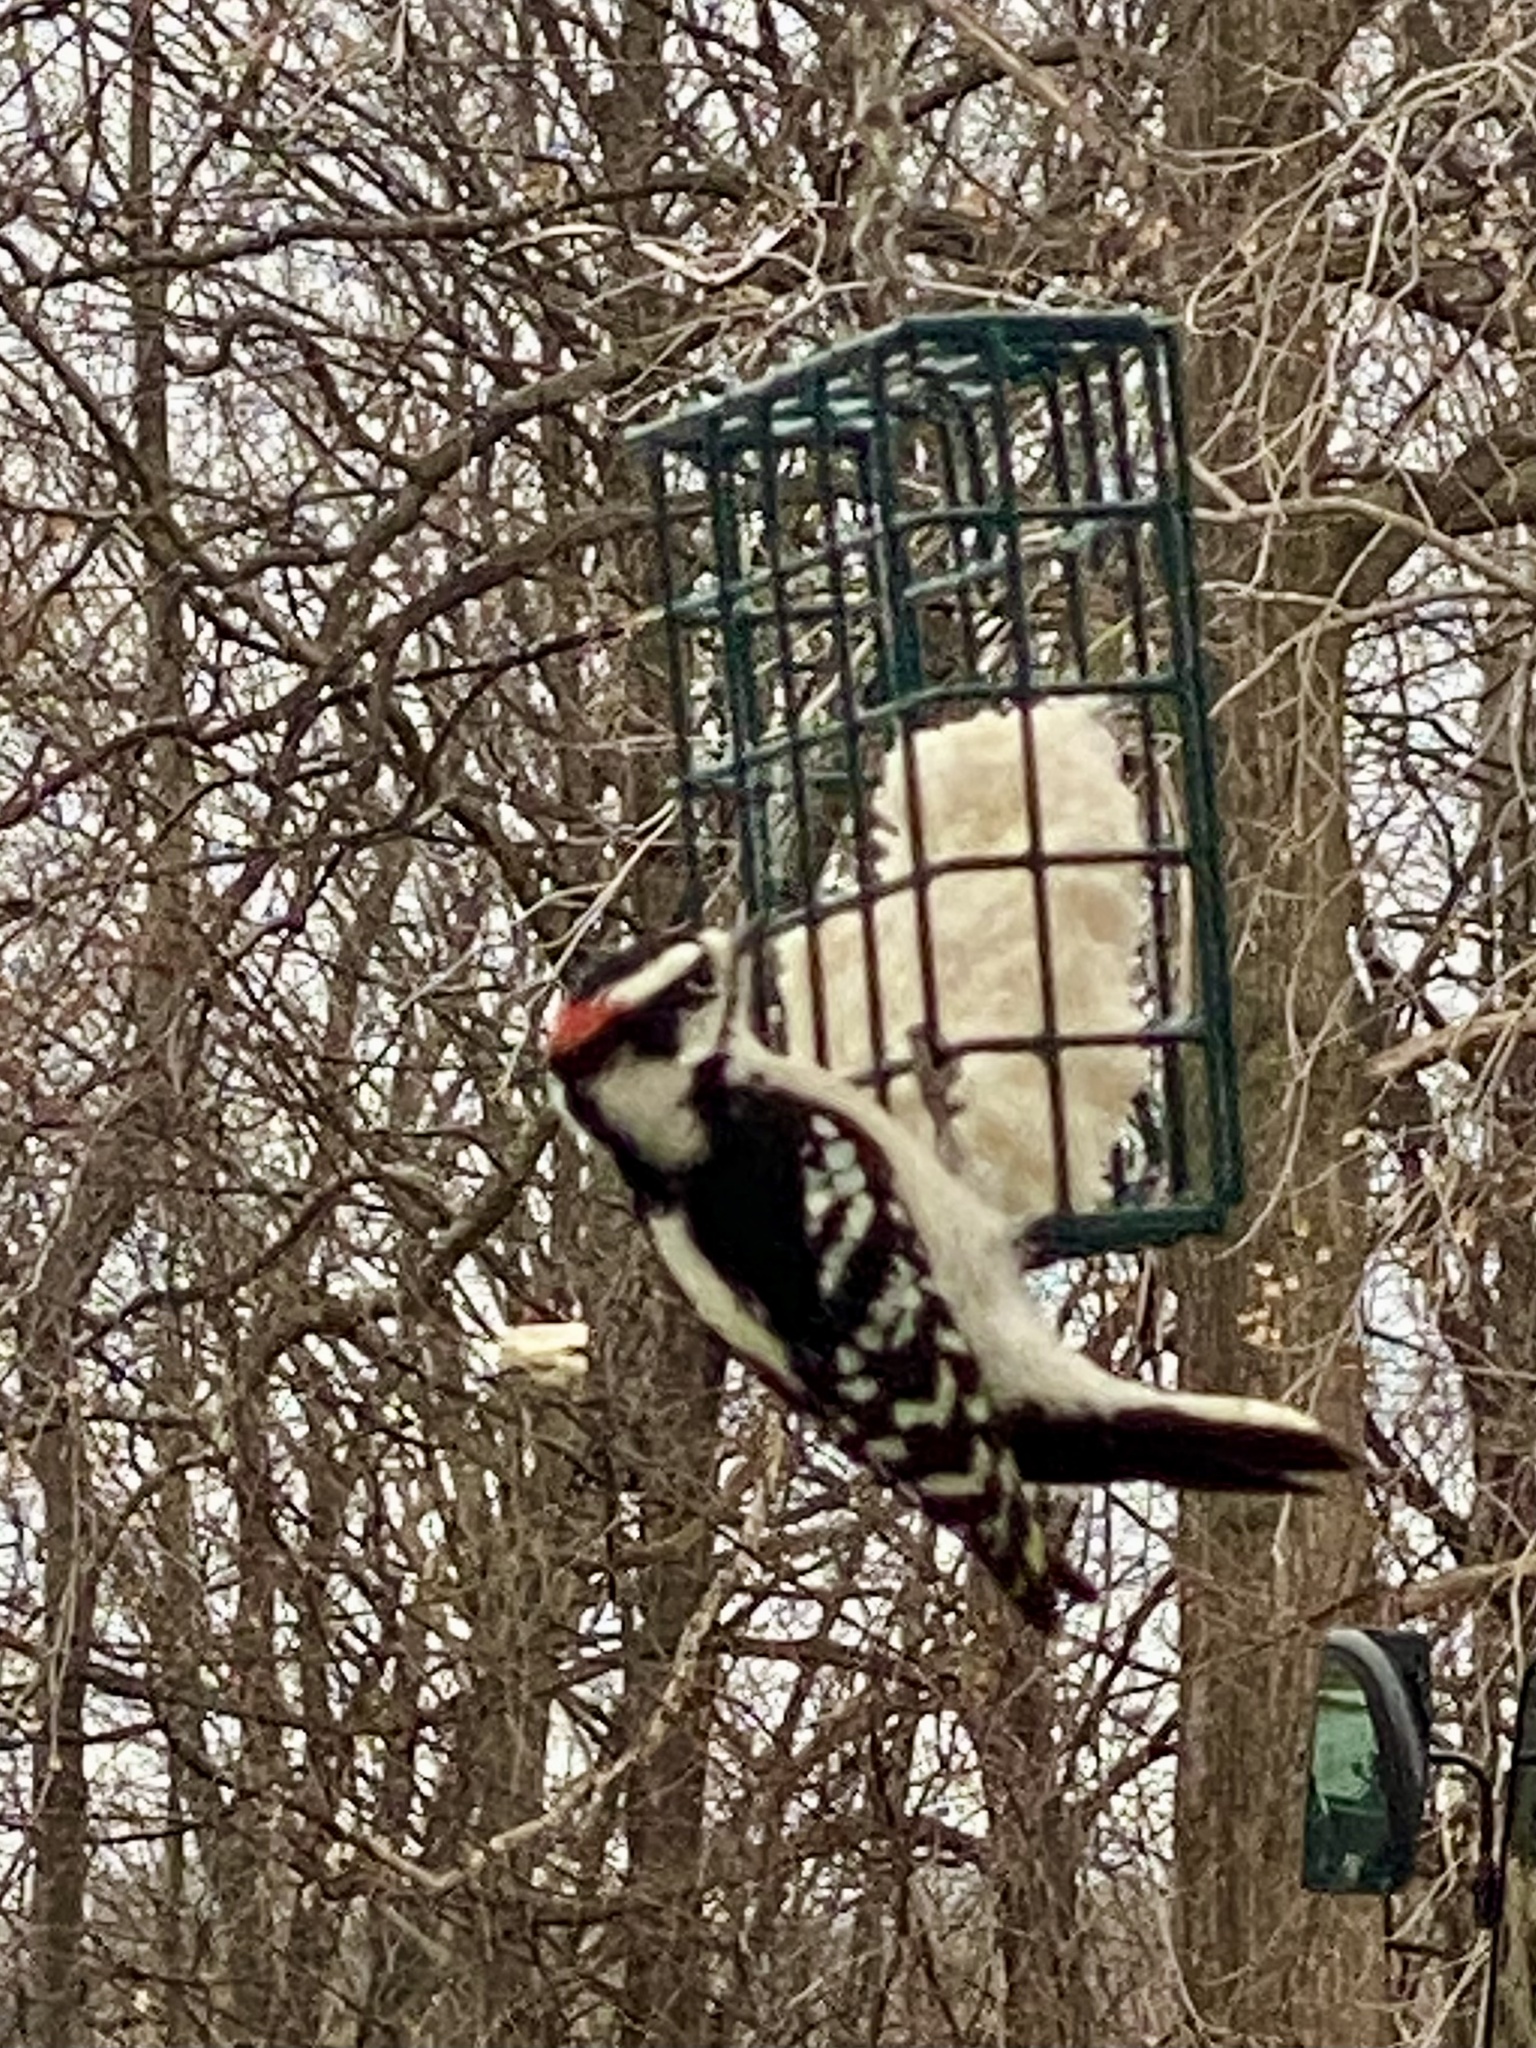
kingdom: Animalia
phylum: Chordata
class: Aves
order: Piciformes
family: Picidae
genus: Dryobates
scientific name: Dryobates pubescens
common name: Downy woodpecker
